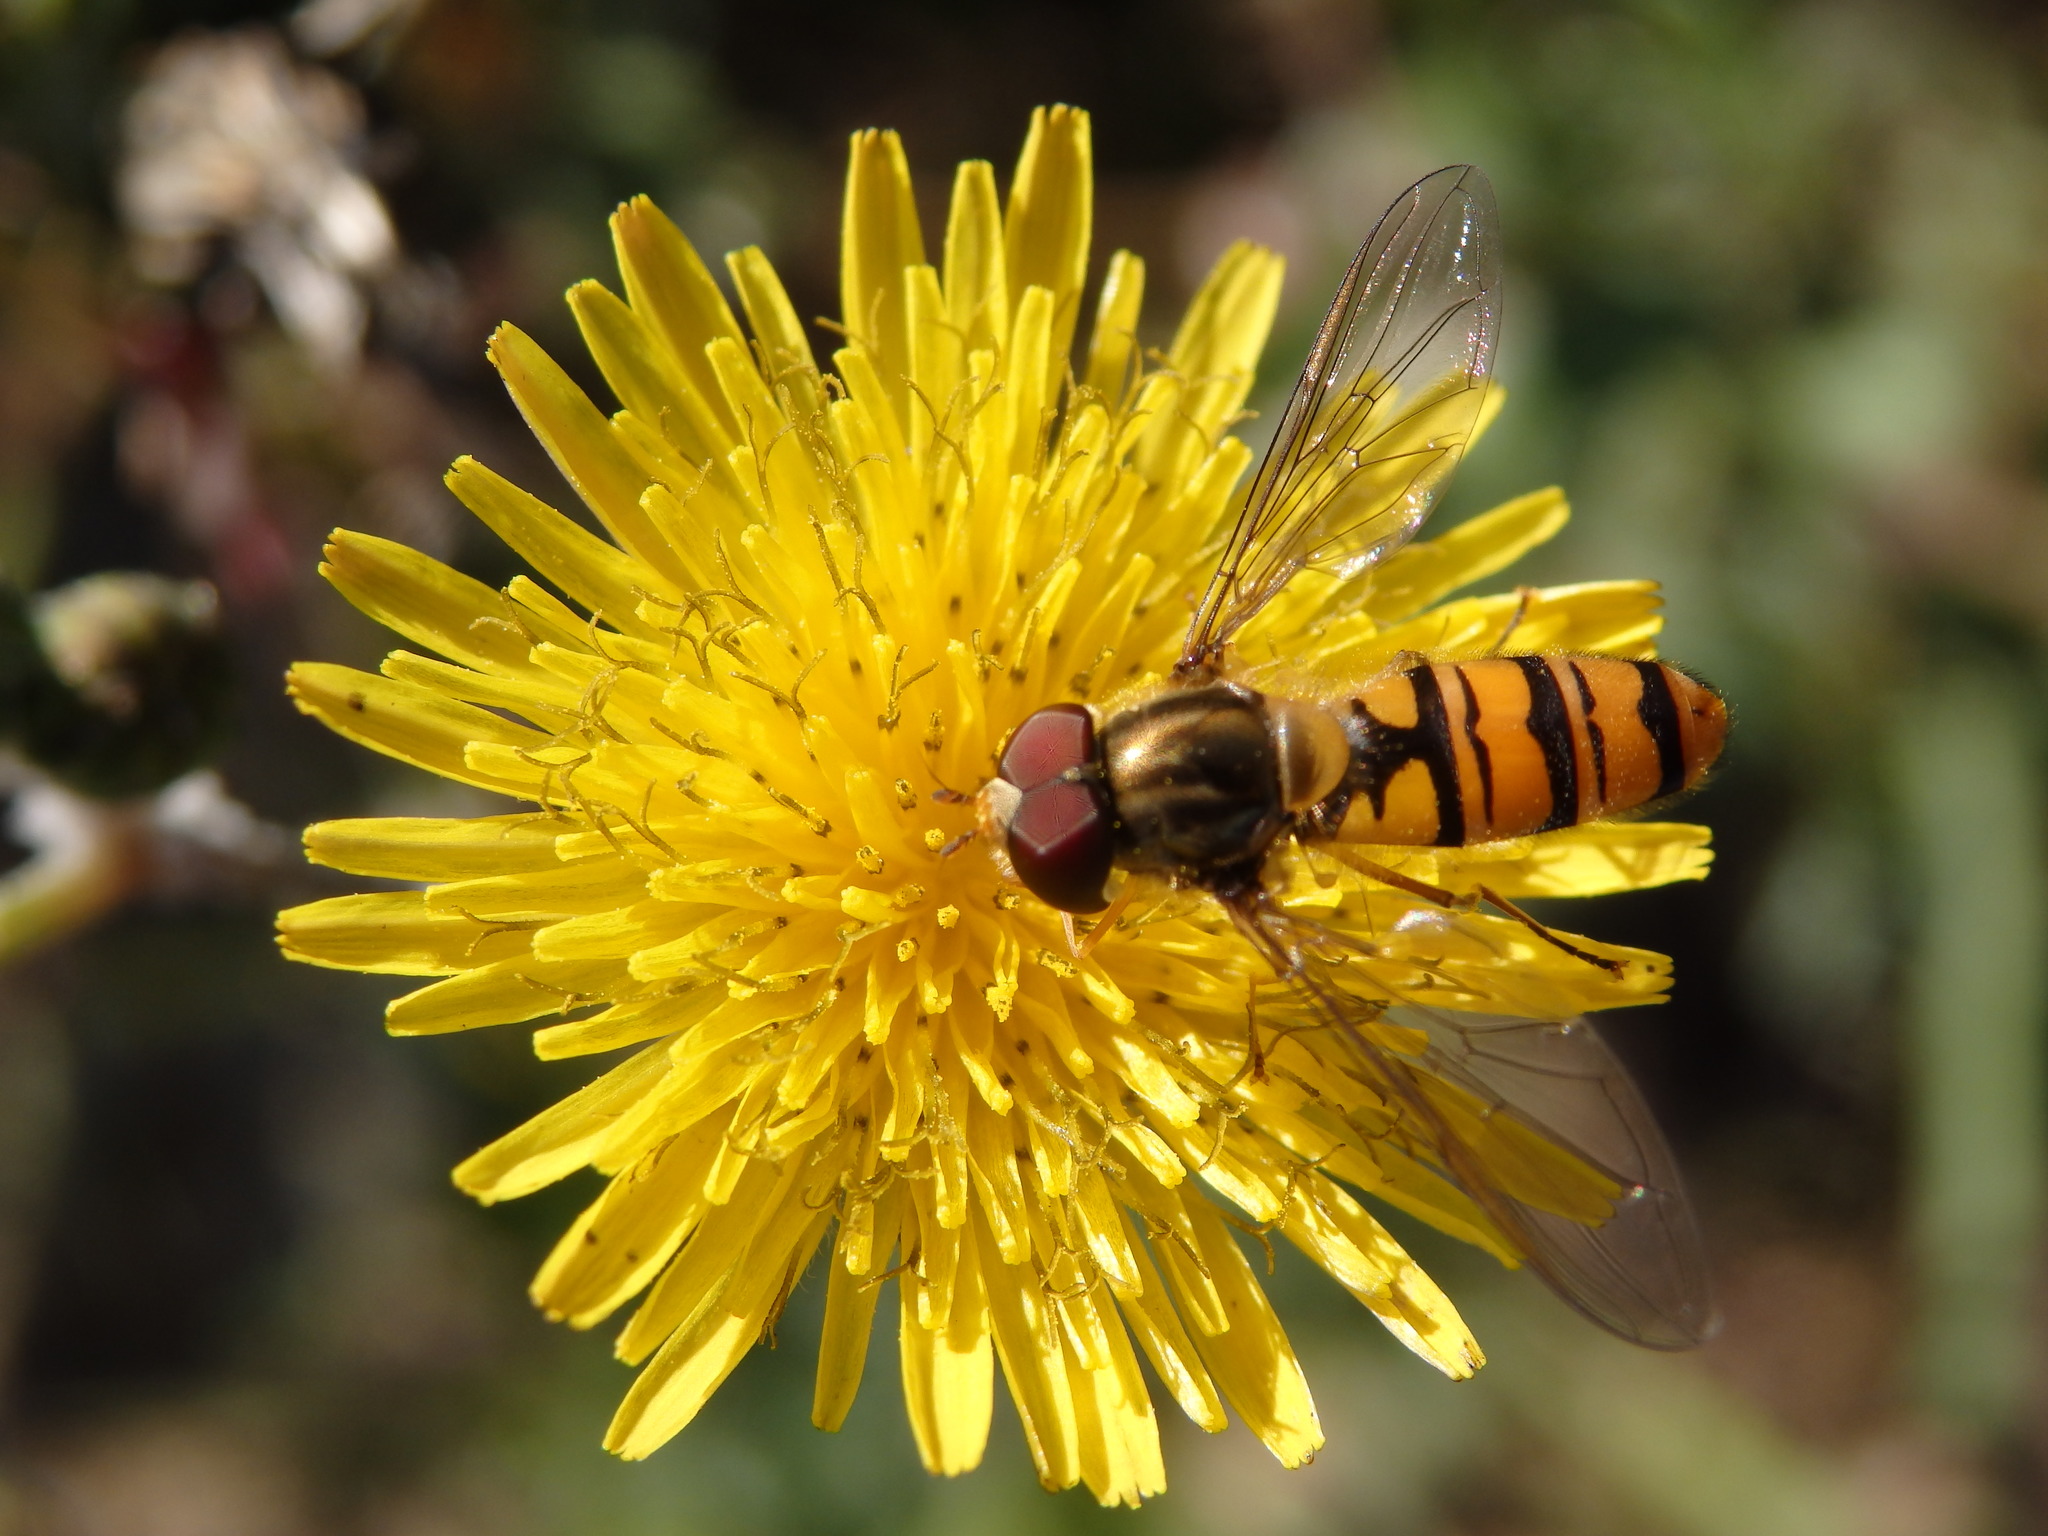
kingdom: Animalia
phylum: Arthropoda
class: Insecta
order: Diptera
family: Syrphidae
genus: Episyrphus
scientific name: Episyrphus balteatus
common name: Marmalade hoverfly
